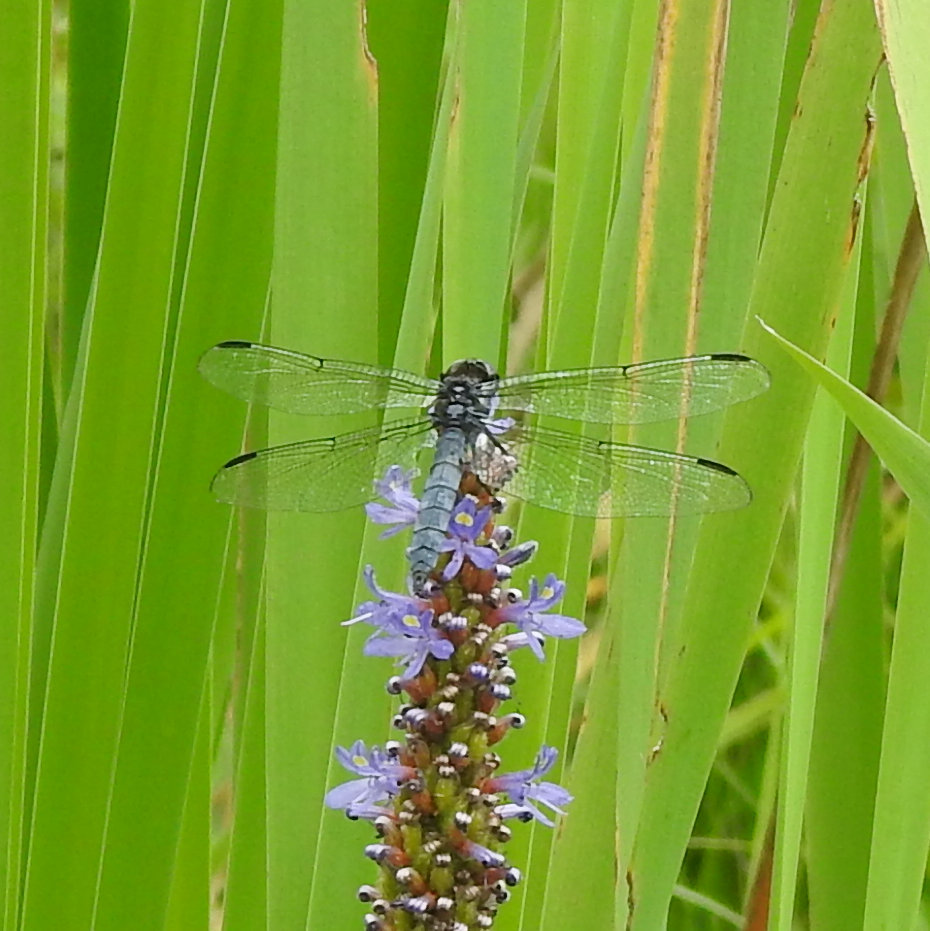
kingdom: Animalia
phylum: Arthropoda
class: Insecta
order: Odonata
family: Libellulidae
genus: Libellula
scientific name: Libellula incesta
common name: Slaty skimmer
